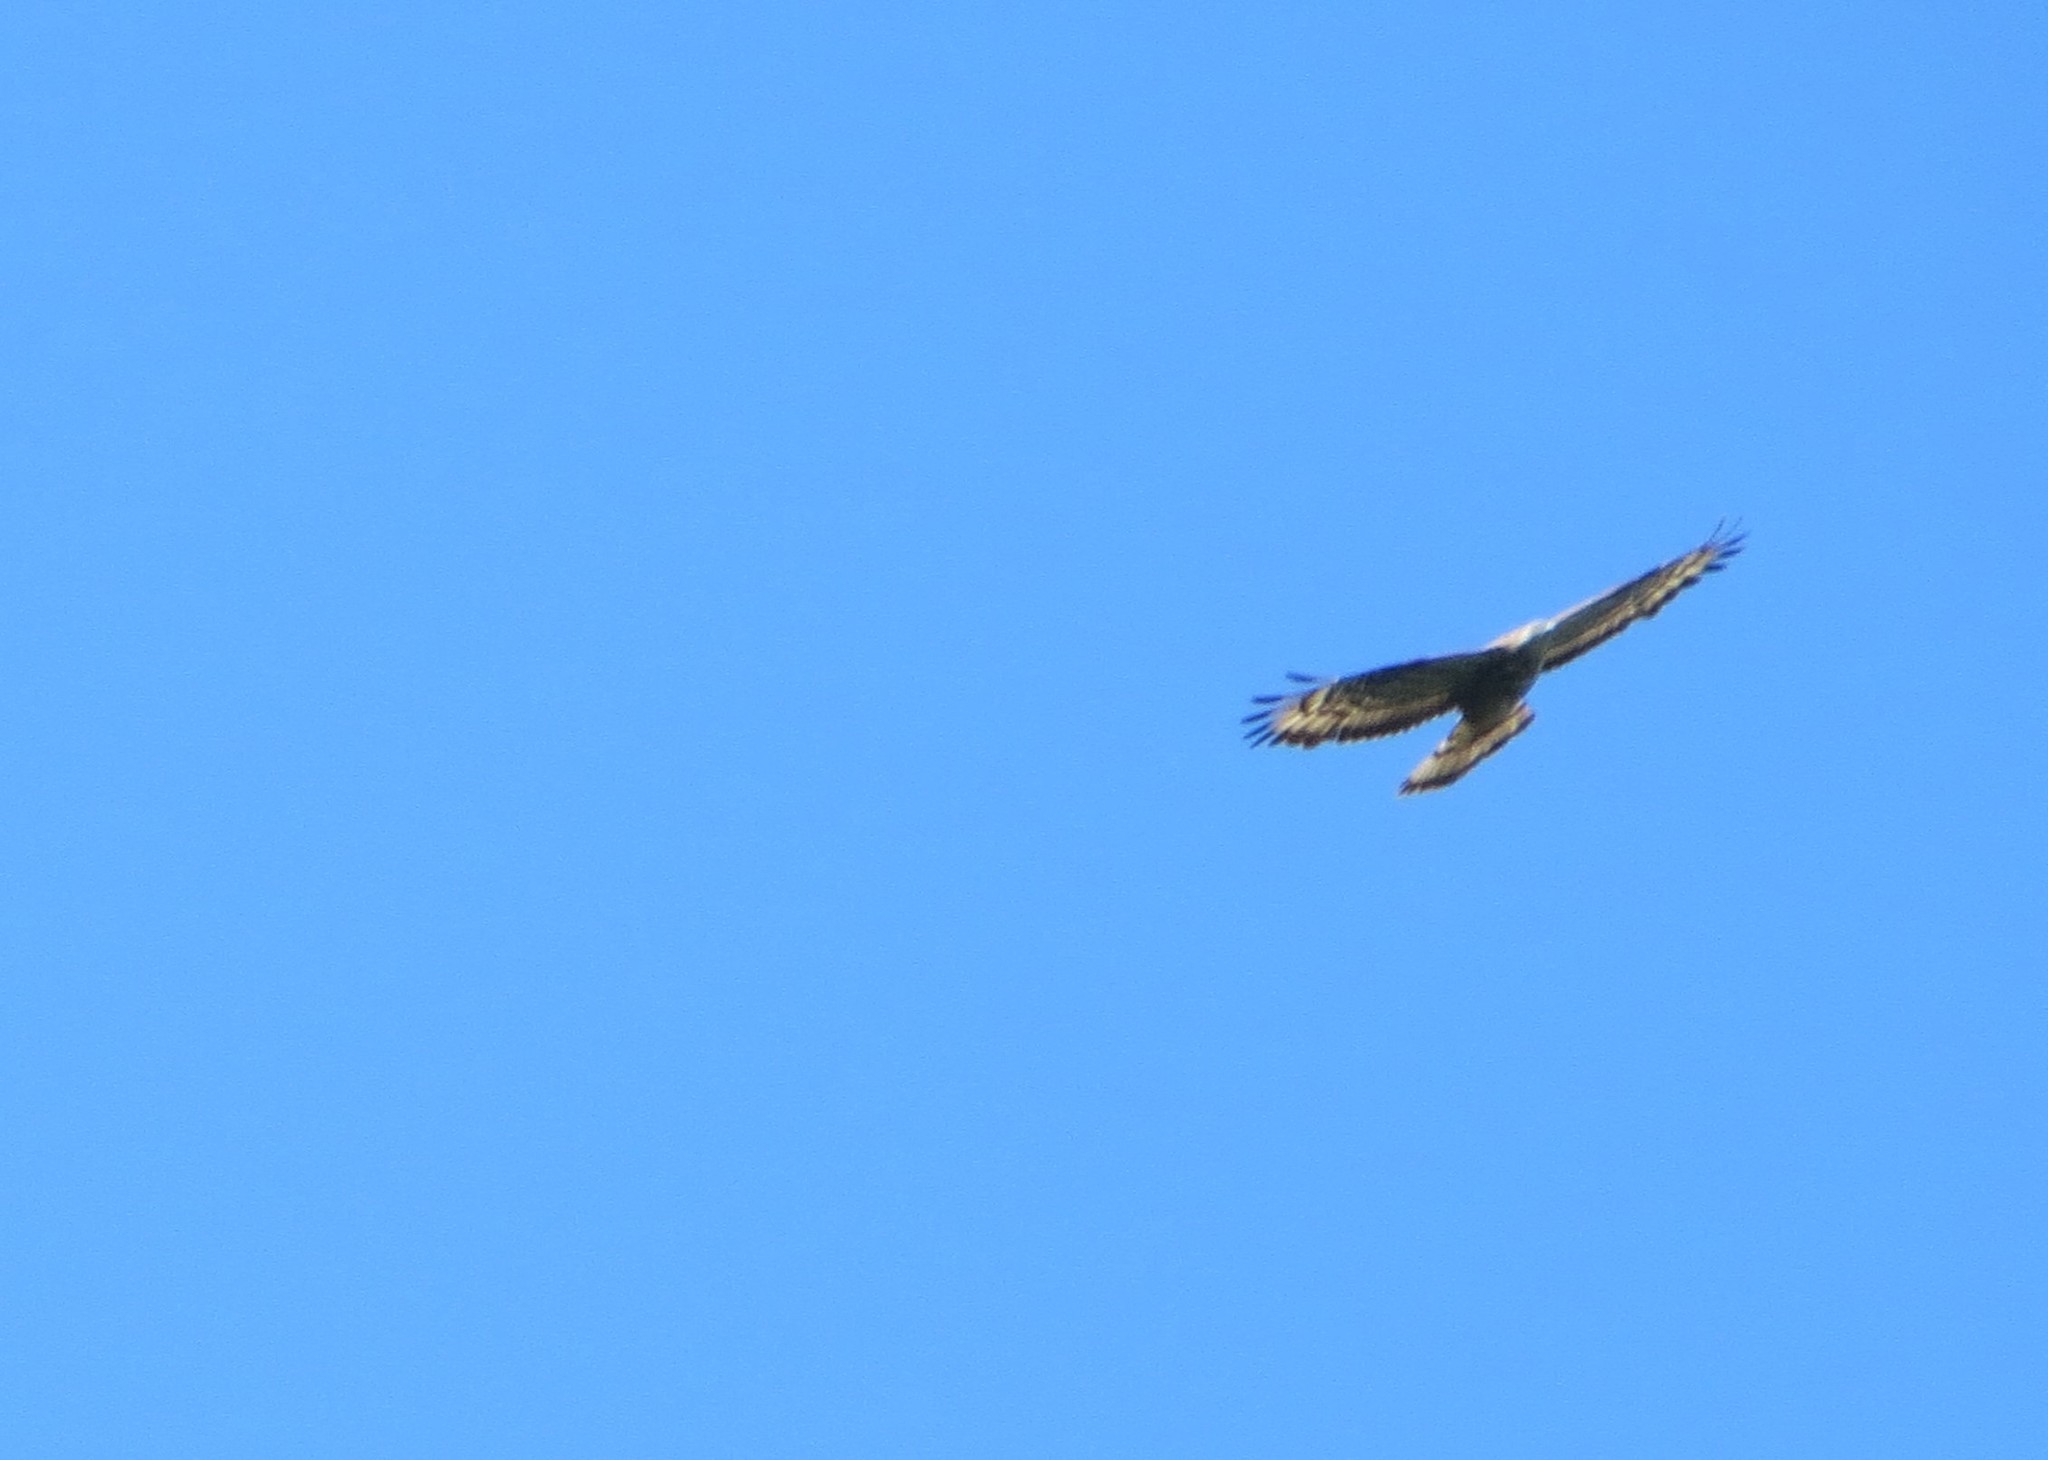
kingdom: Animalia
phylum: Chordata
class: Aves
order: Accipitriformes
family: Accipitridae
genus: Pernis
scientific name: Pernis apivorus
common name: European honey buzzard
